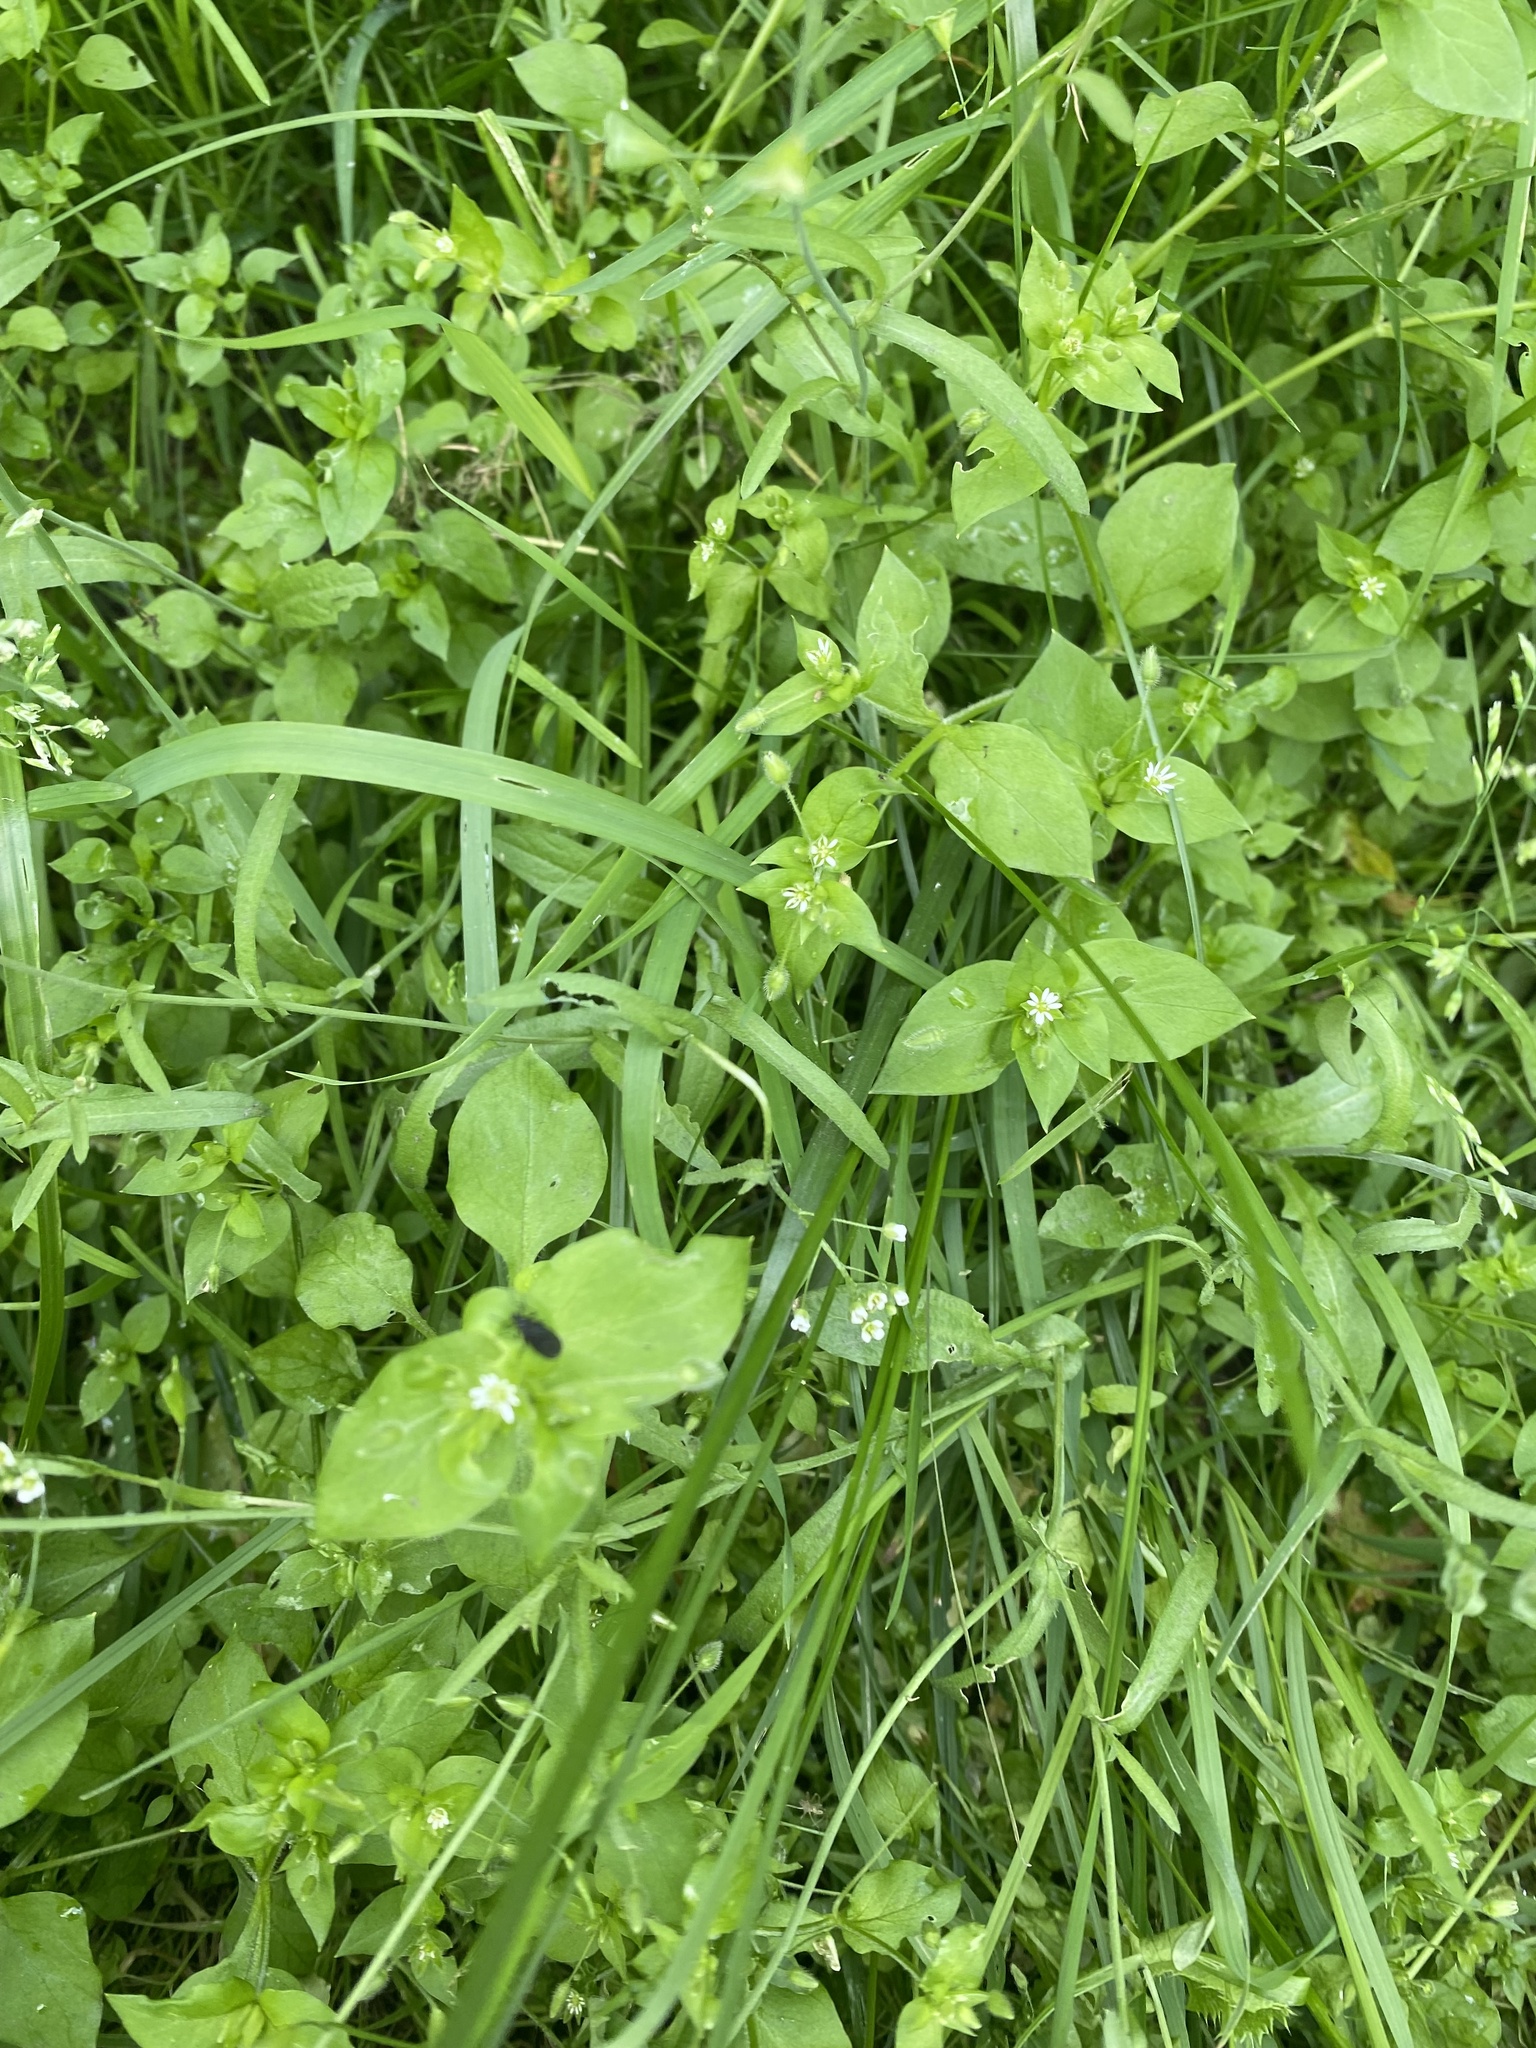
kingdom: Plantae
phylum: Tracheophyta
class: Magnoliopsida
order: Caryophyllales
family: Caryophyllaceae
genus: Stellaria
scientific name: Stellaria media
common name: Common chickweed
